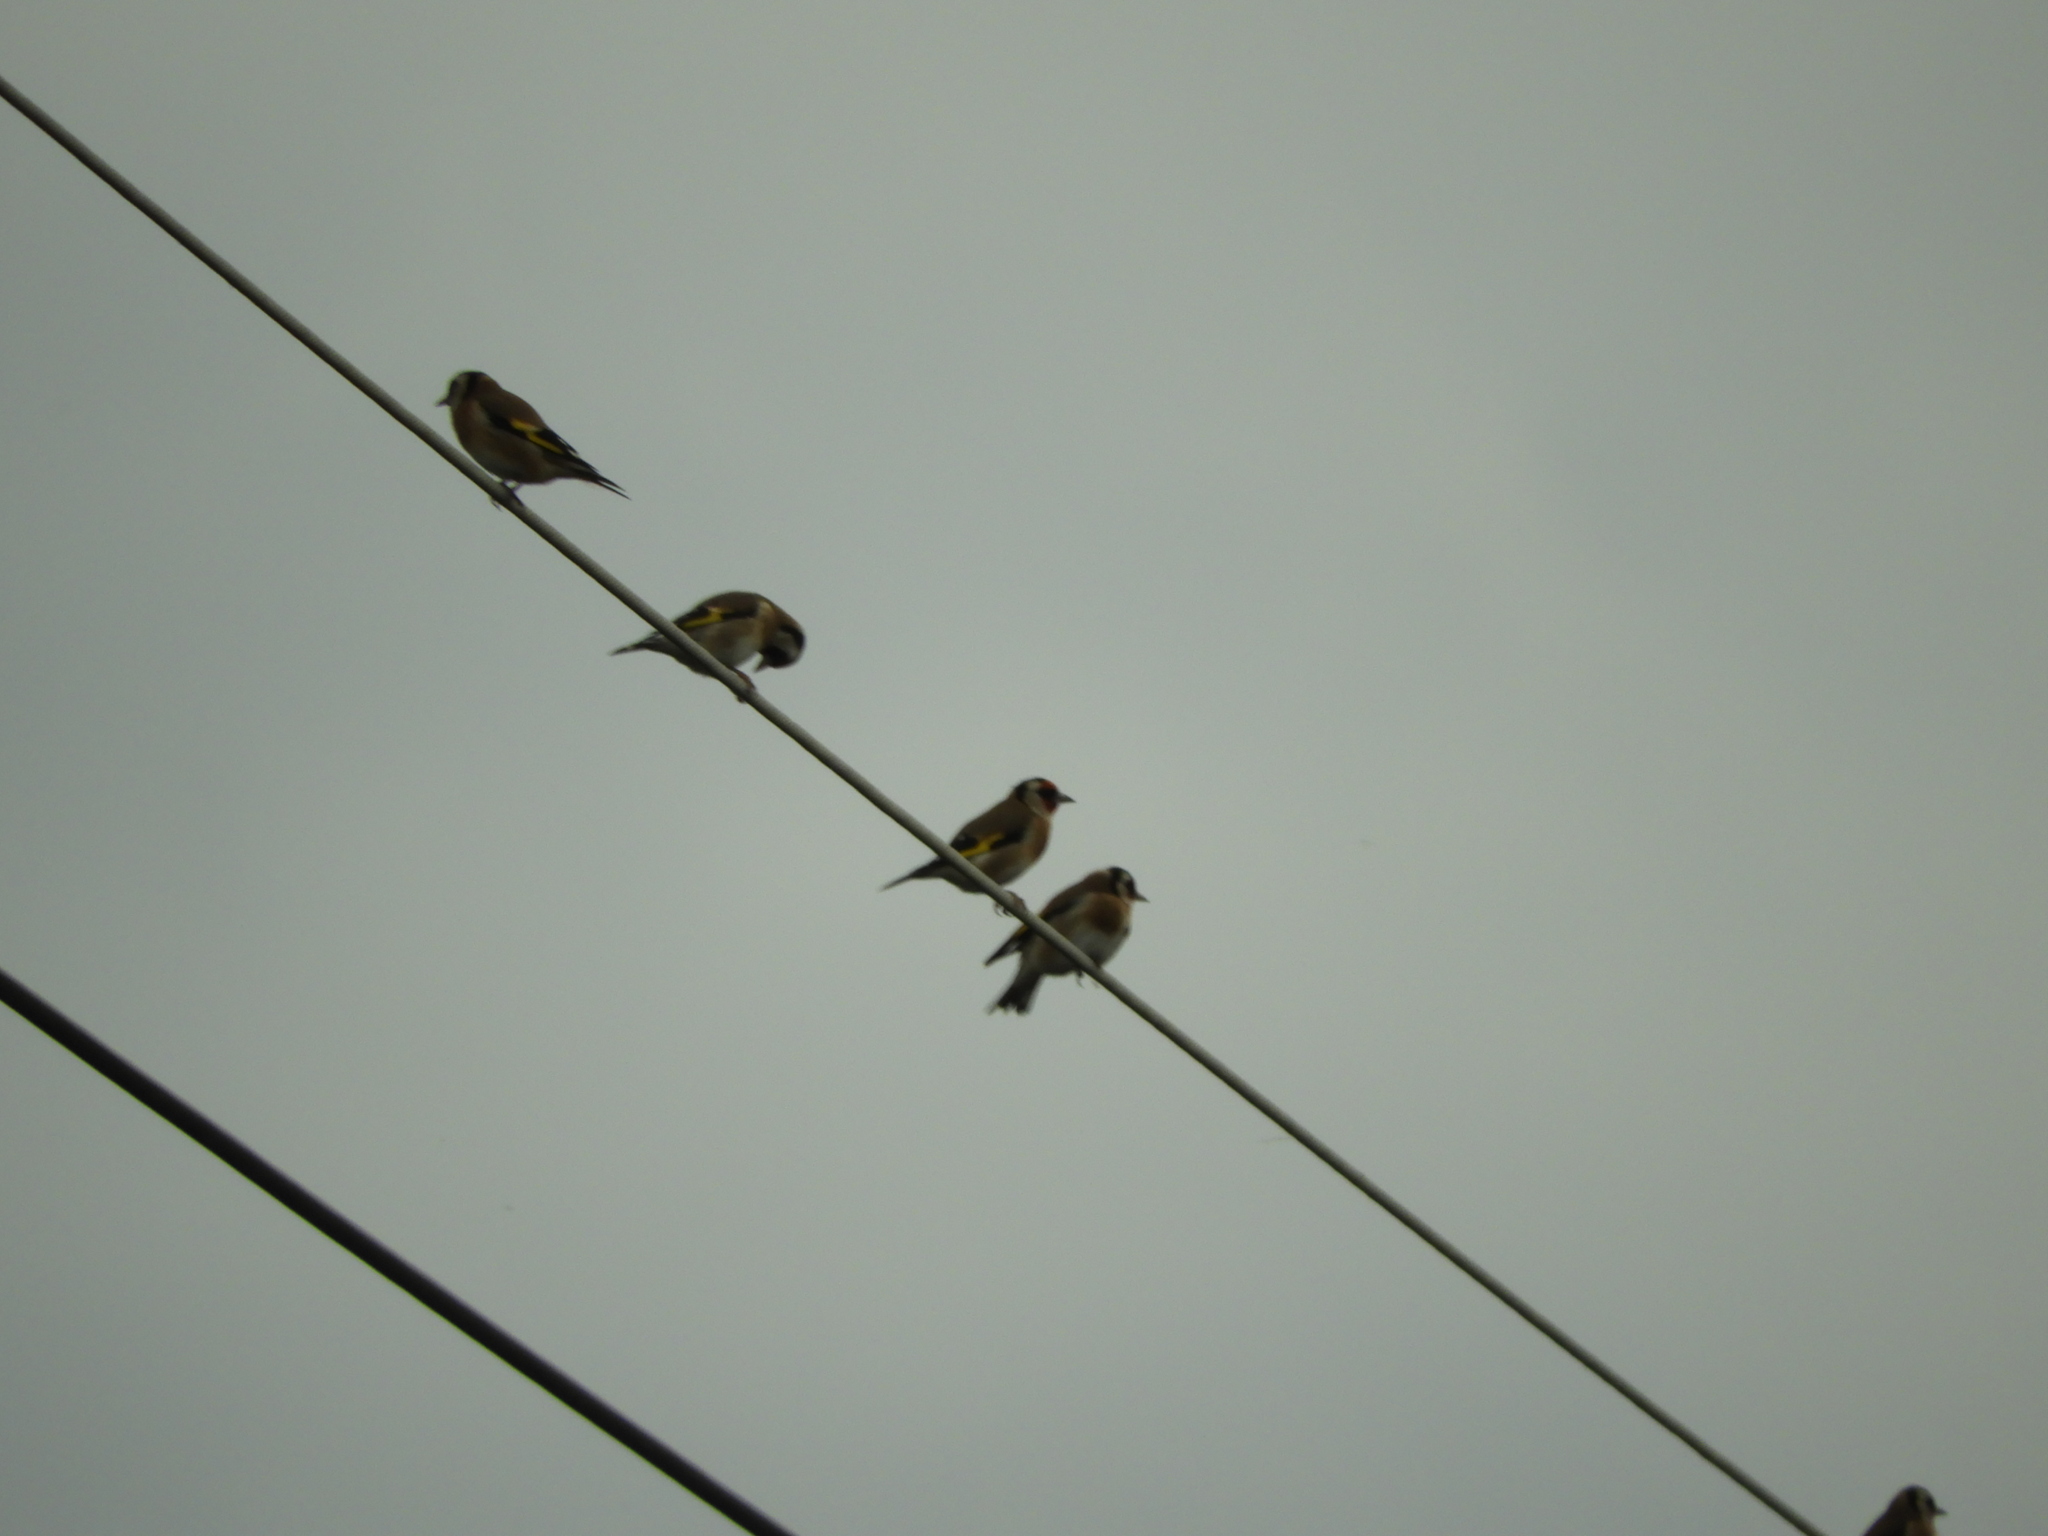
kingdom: Animalia
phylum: Chordata
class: Aves
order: Passeriformes
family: Fringillidae
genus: Carduelis
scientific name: Carduelis carduelis
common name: European goldfinch
